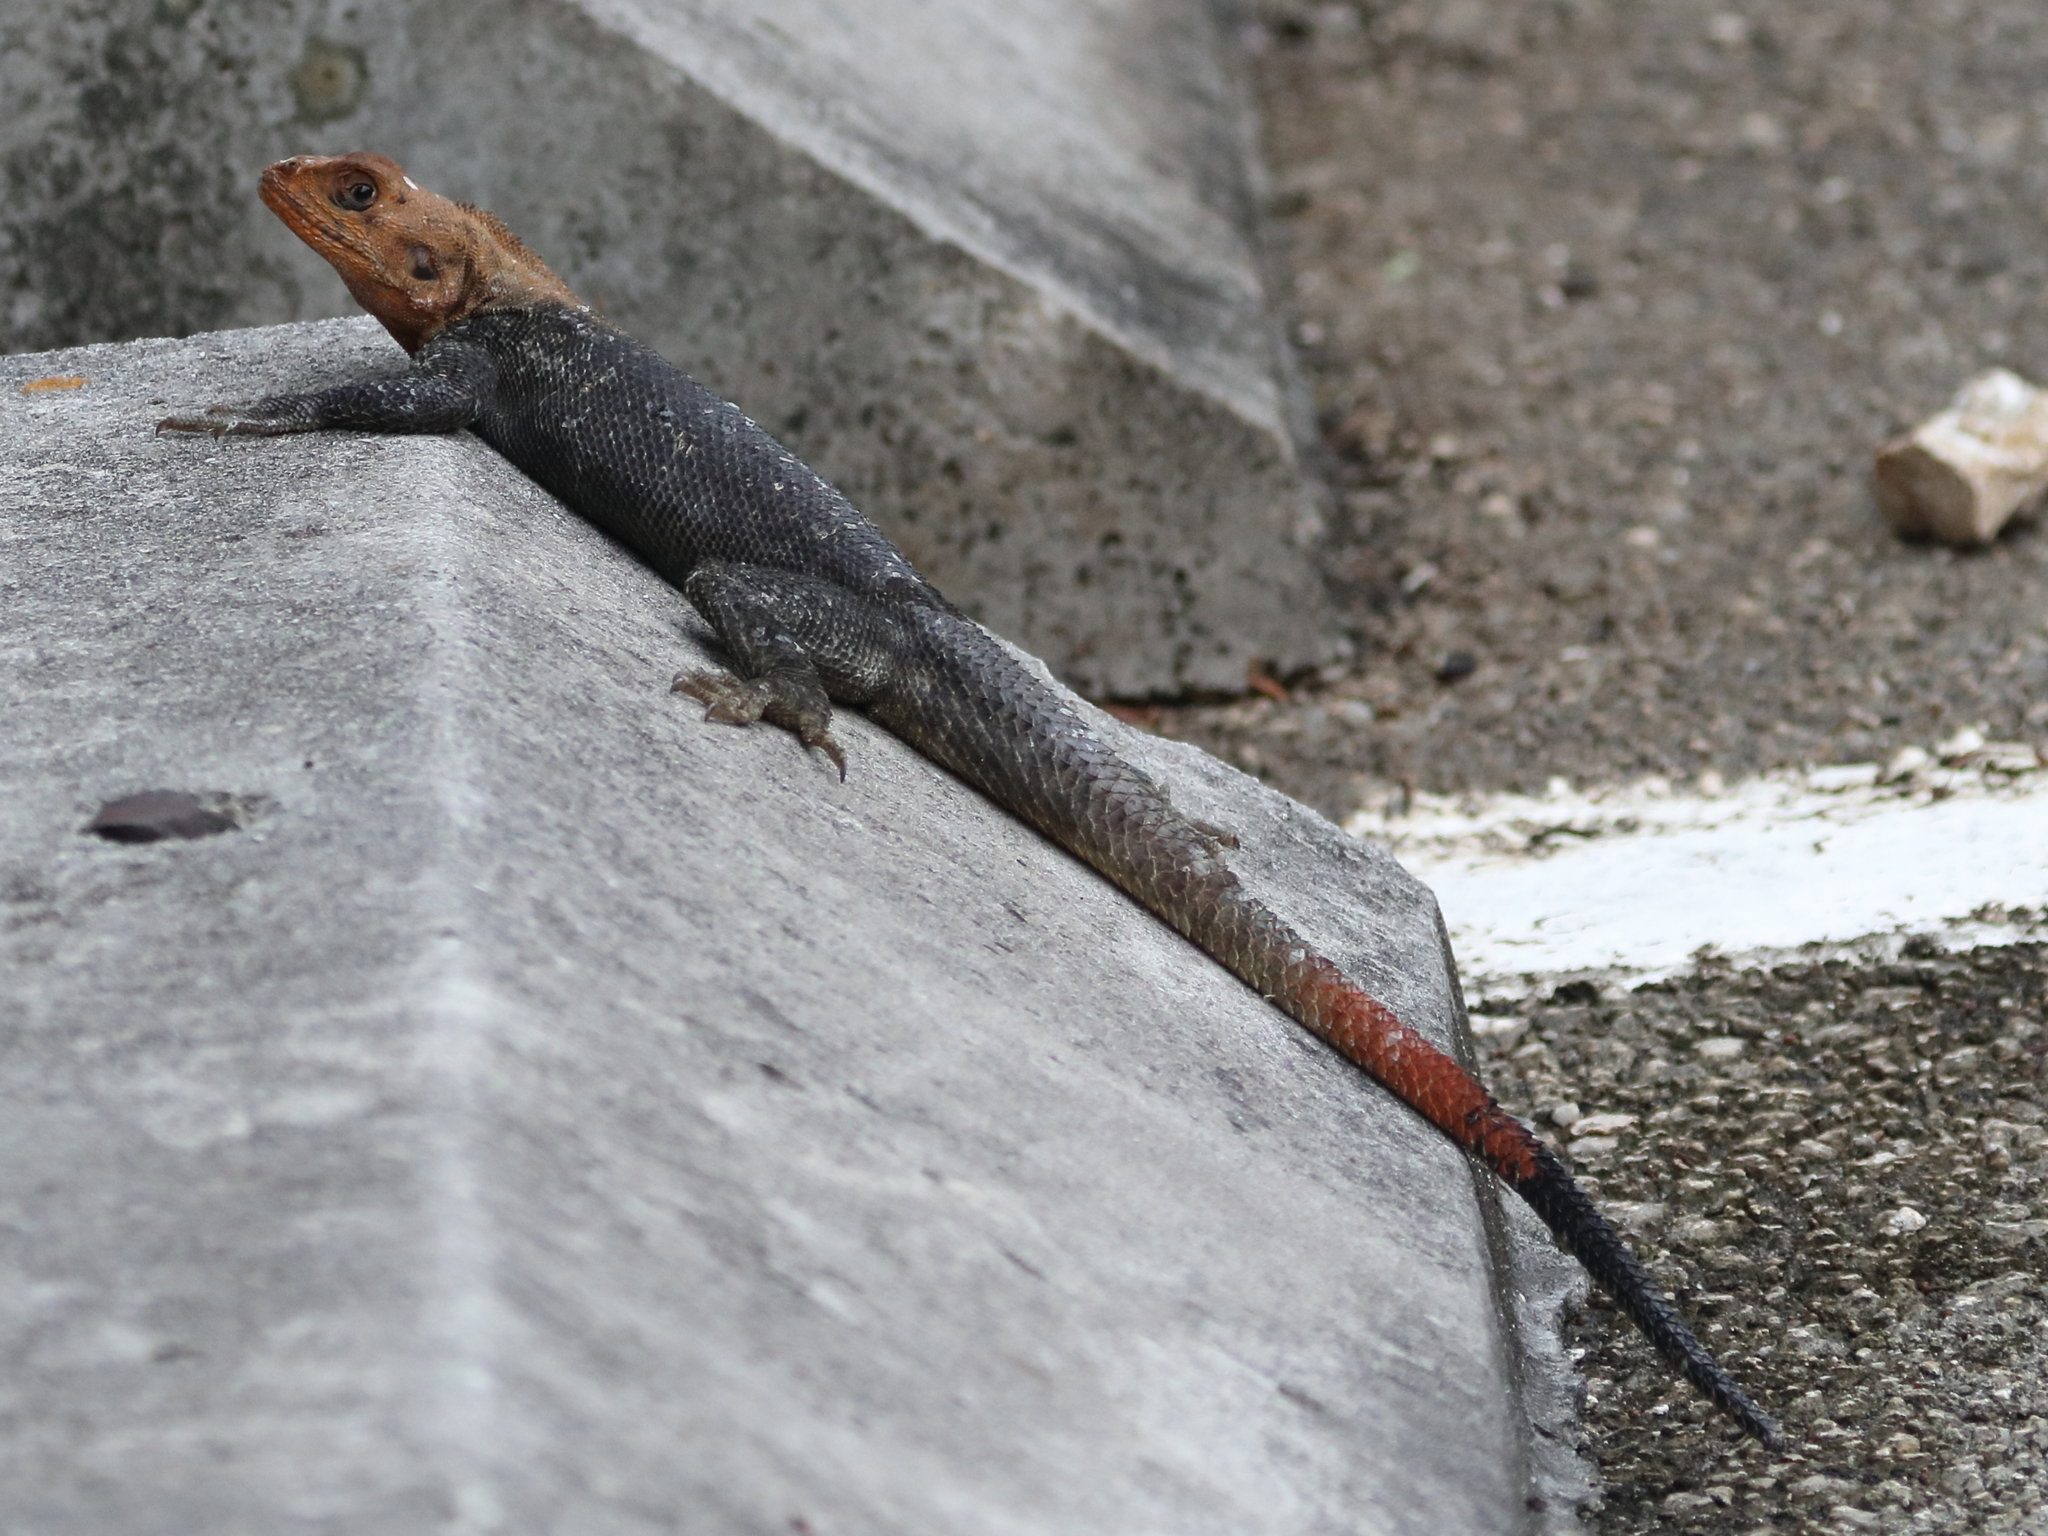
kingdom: Animalia
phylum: Chordata
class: Squamata
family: Agamidae
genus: Agama
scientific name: Agama picticauda
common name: Red-headed agama
